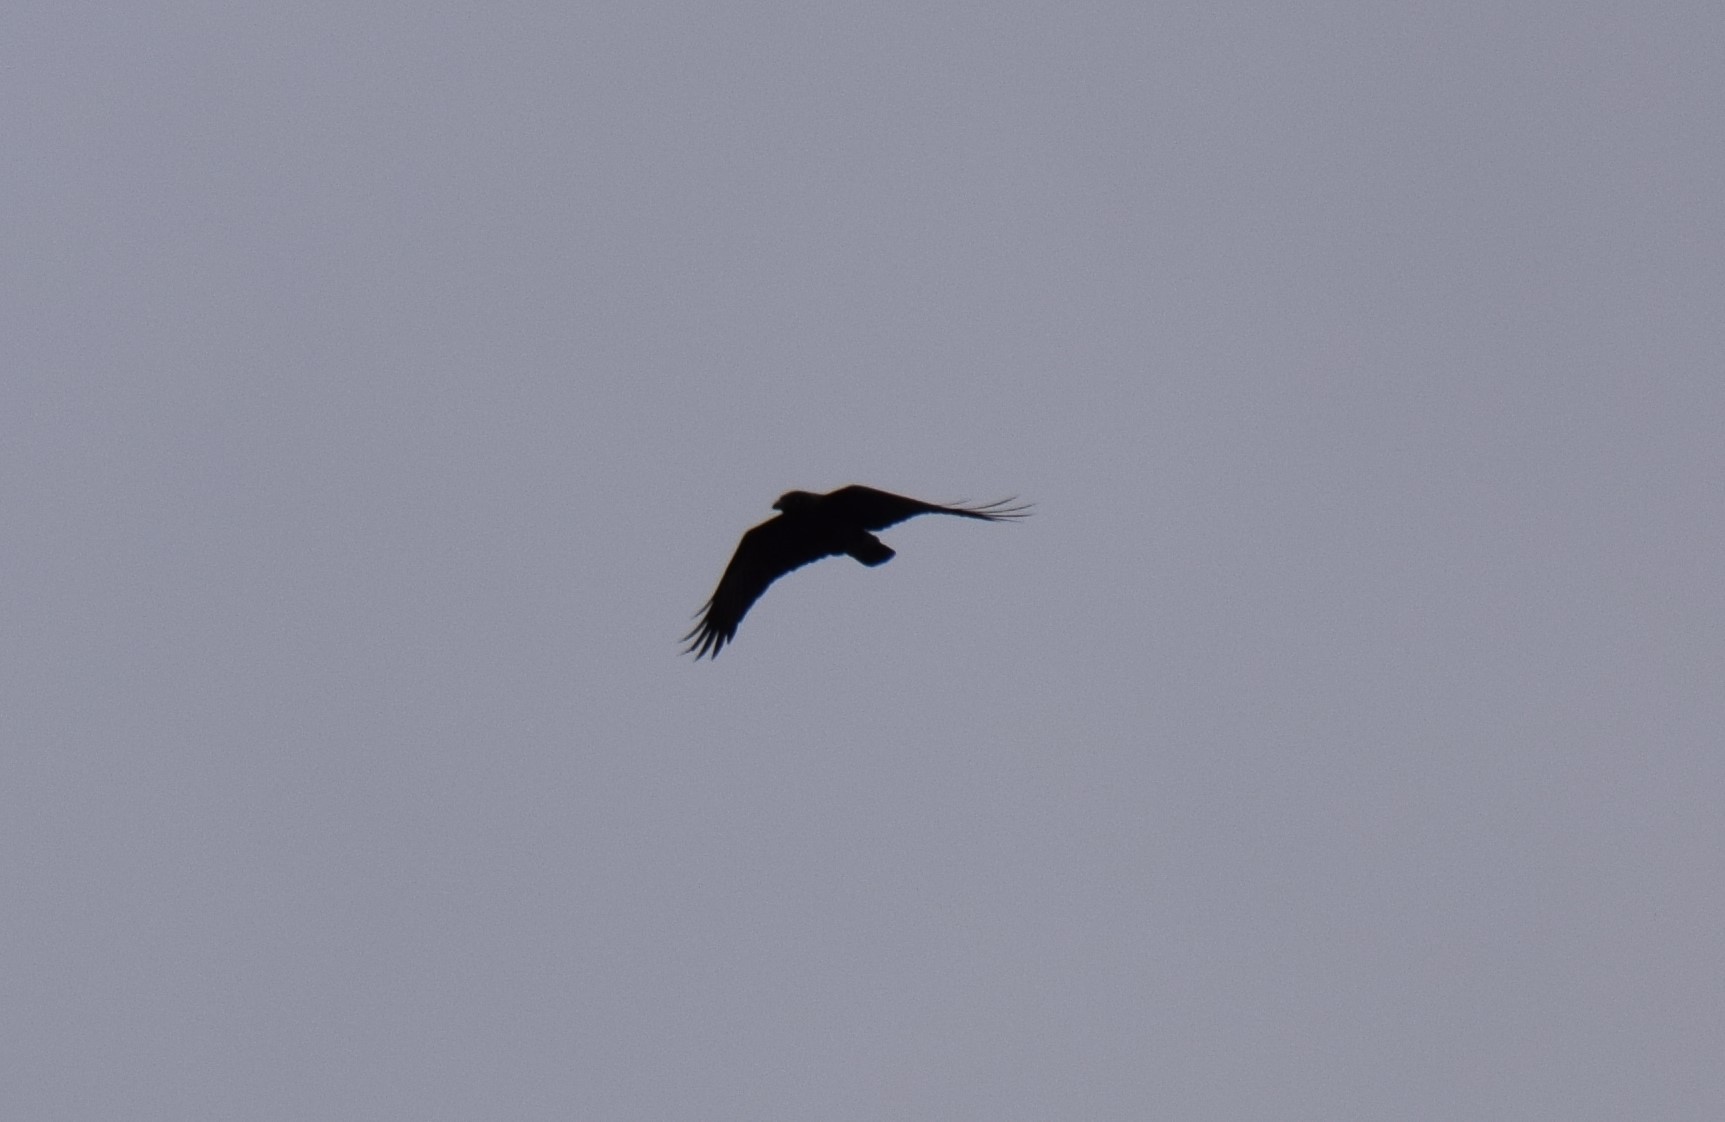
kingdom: Animalia
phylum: Chordata
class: Aves
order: Passeriformes
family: Corvidae
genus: Corvus
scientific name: Corvus coronoides
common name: Australian raven
